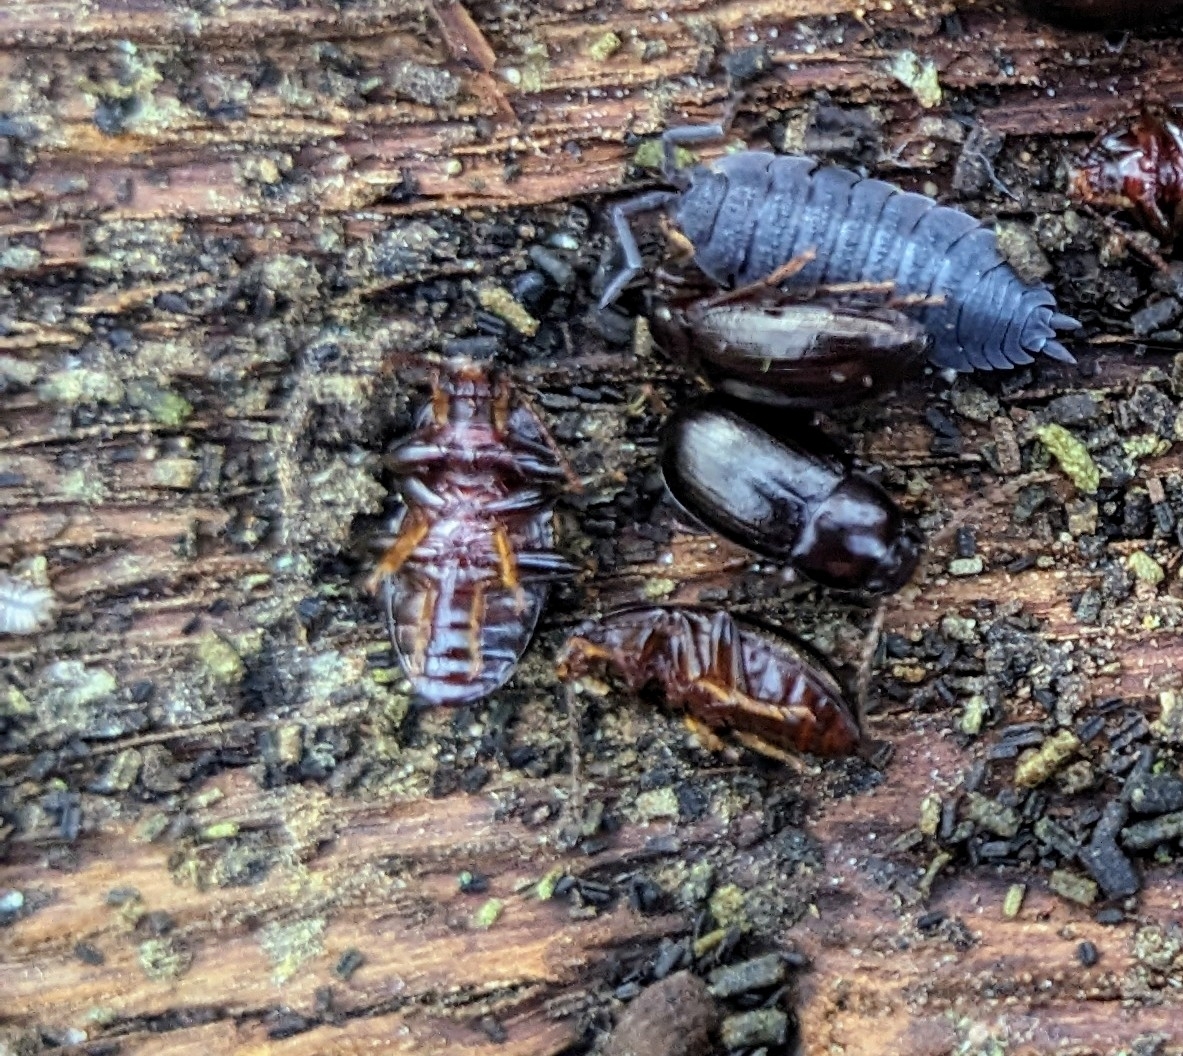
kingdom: Animalia
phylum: Arthropoda
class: Insecta
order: Coleoptera
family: Tenebrionidae
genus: Nalassus
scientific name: Nalassus laevioctostriatus
